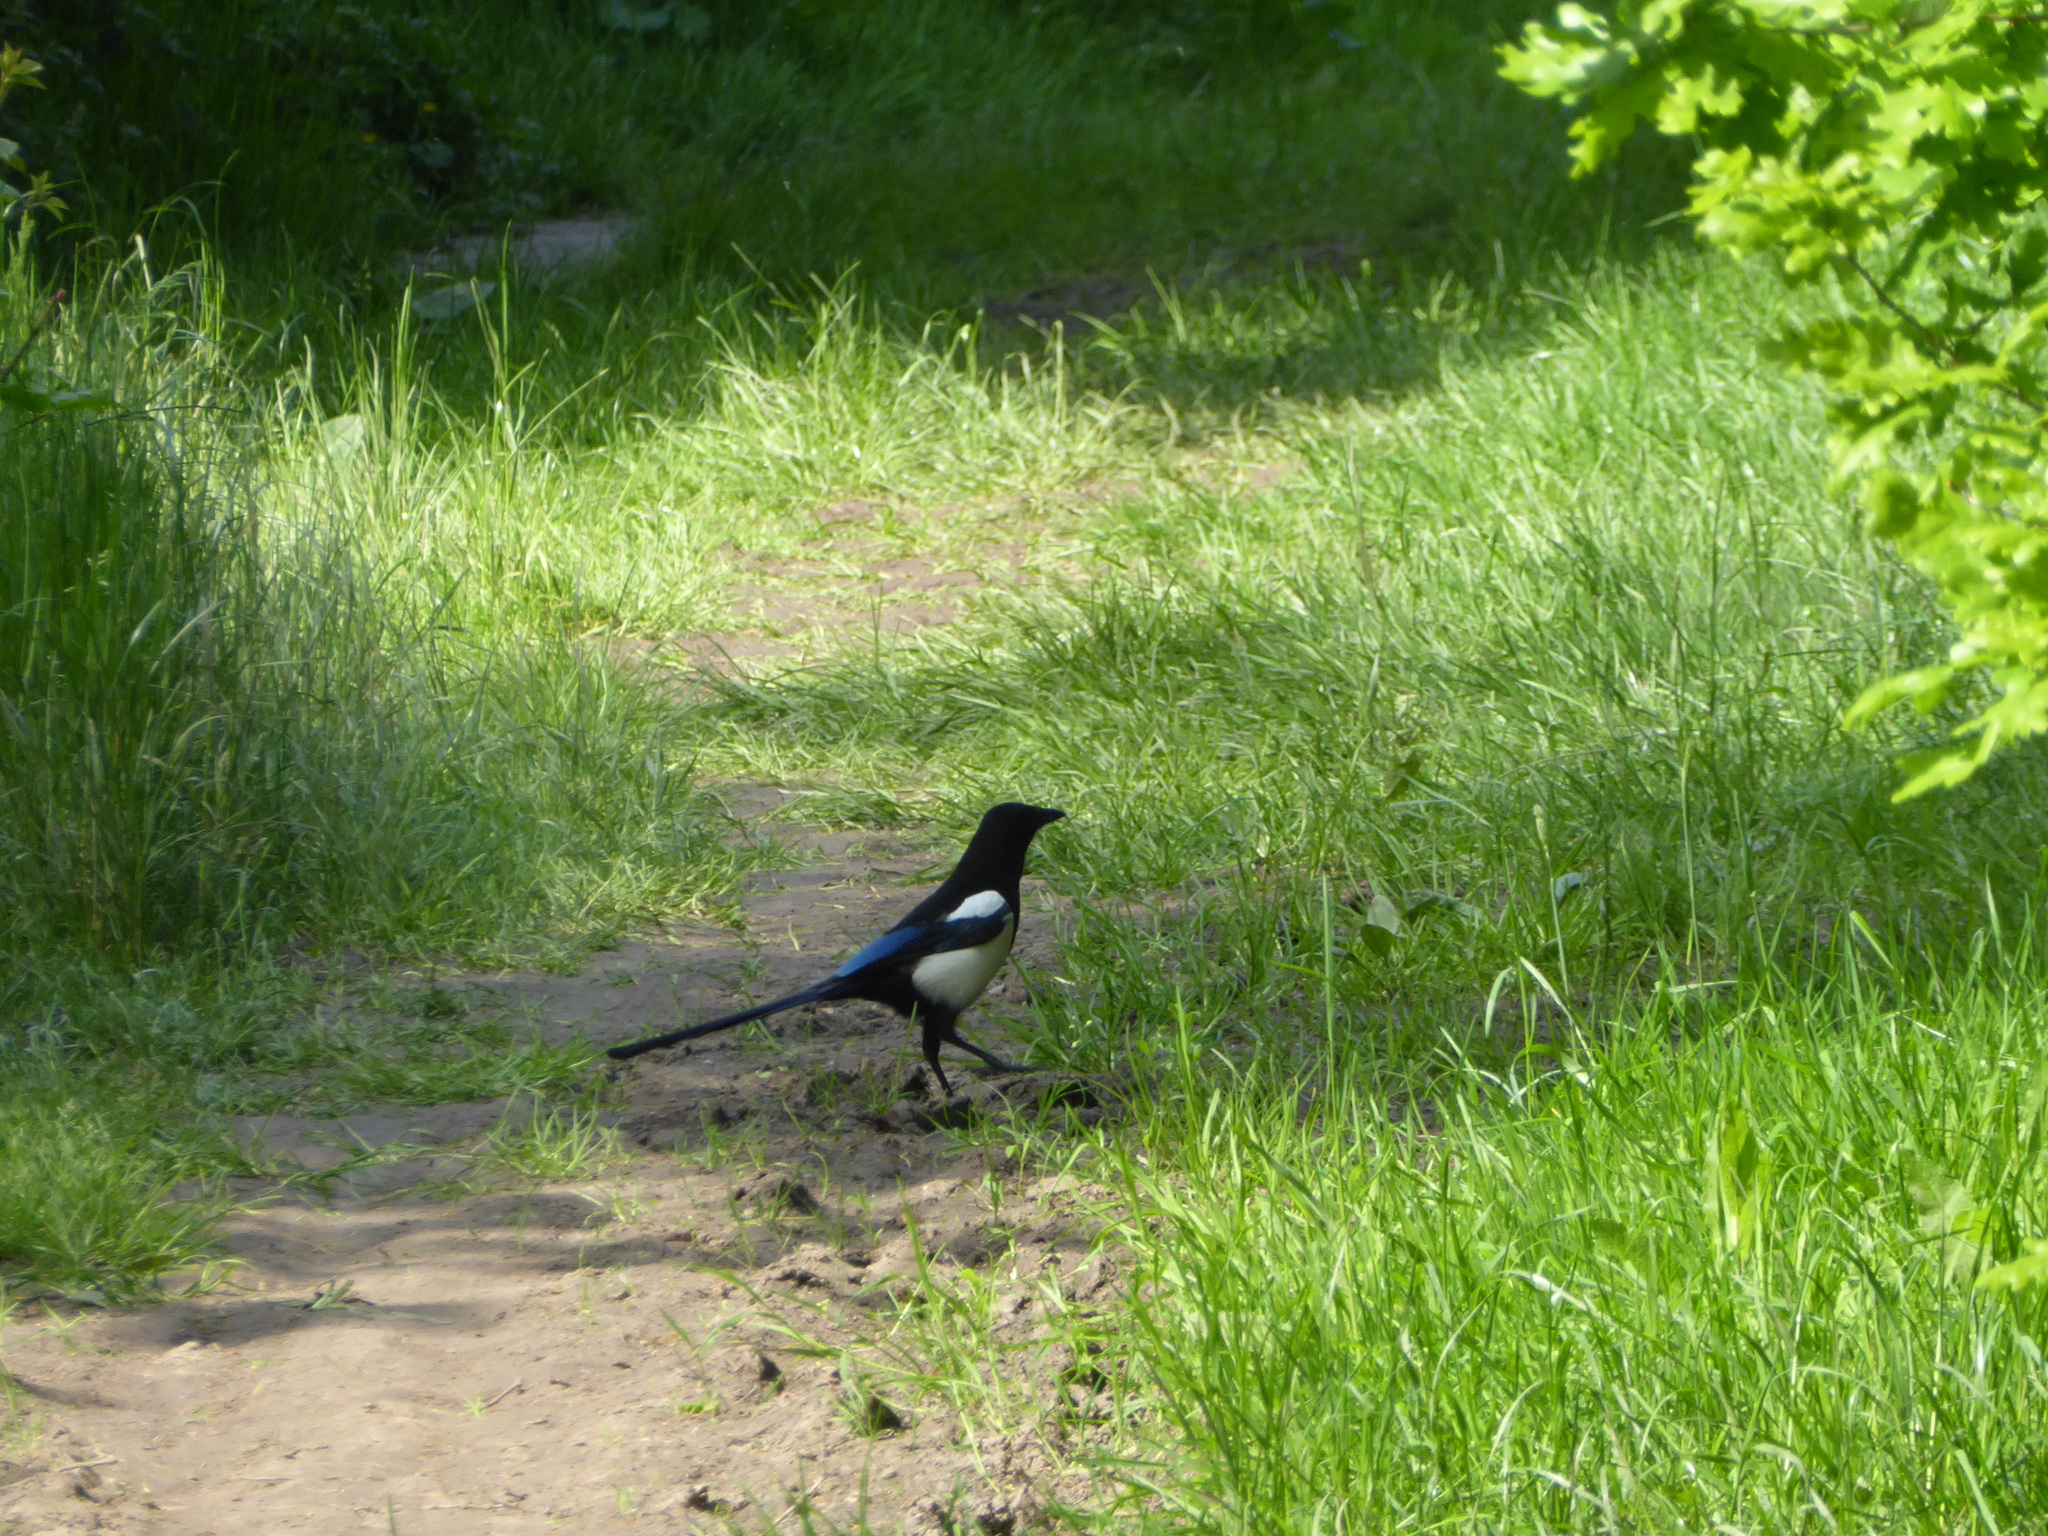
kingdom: Animalia
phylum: Chordata
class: Aves
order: Passeriformes
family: Corvidae
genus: Pica
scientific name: Pica pica
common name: Eurasian magpie
